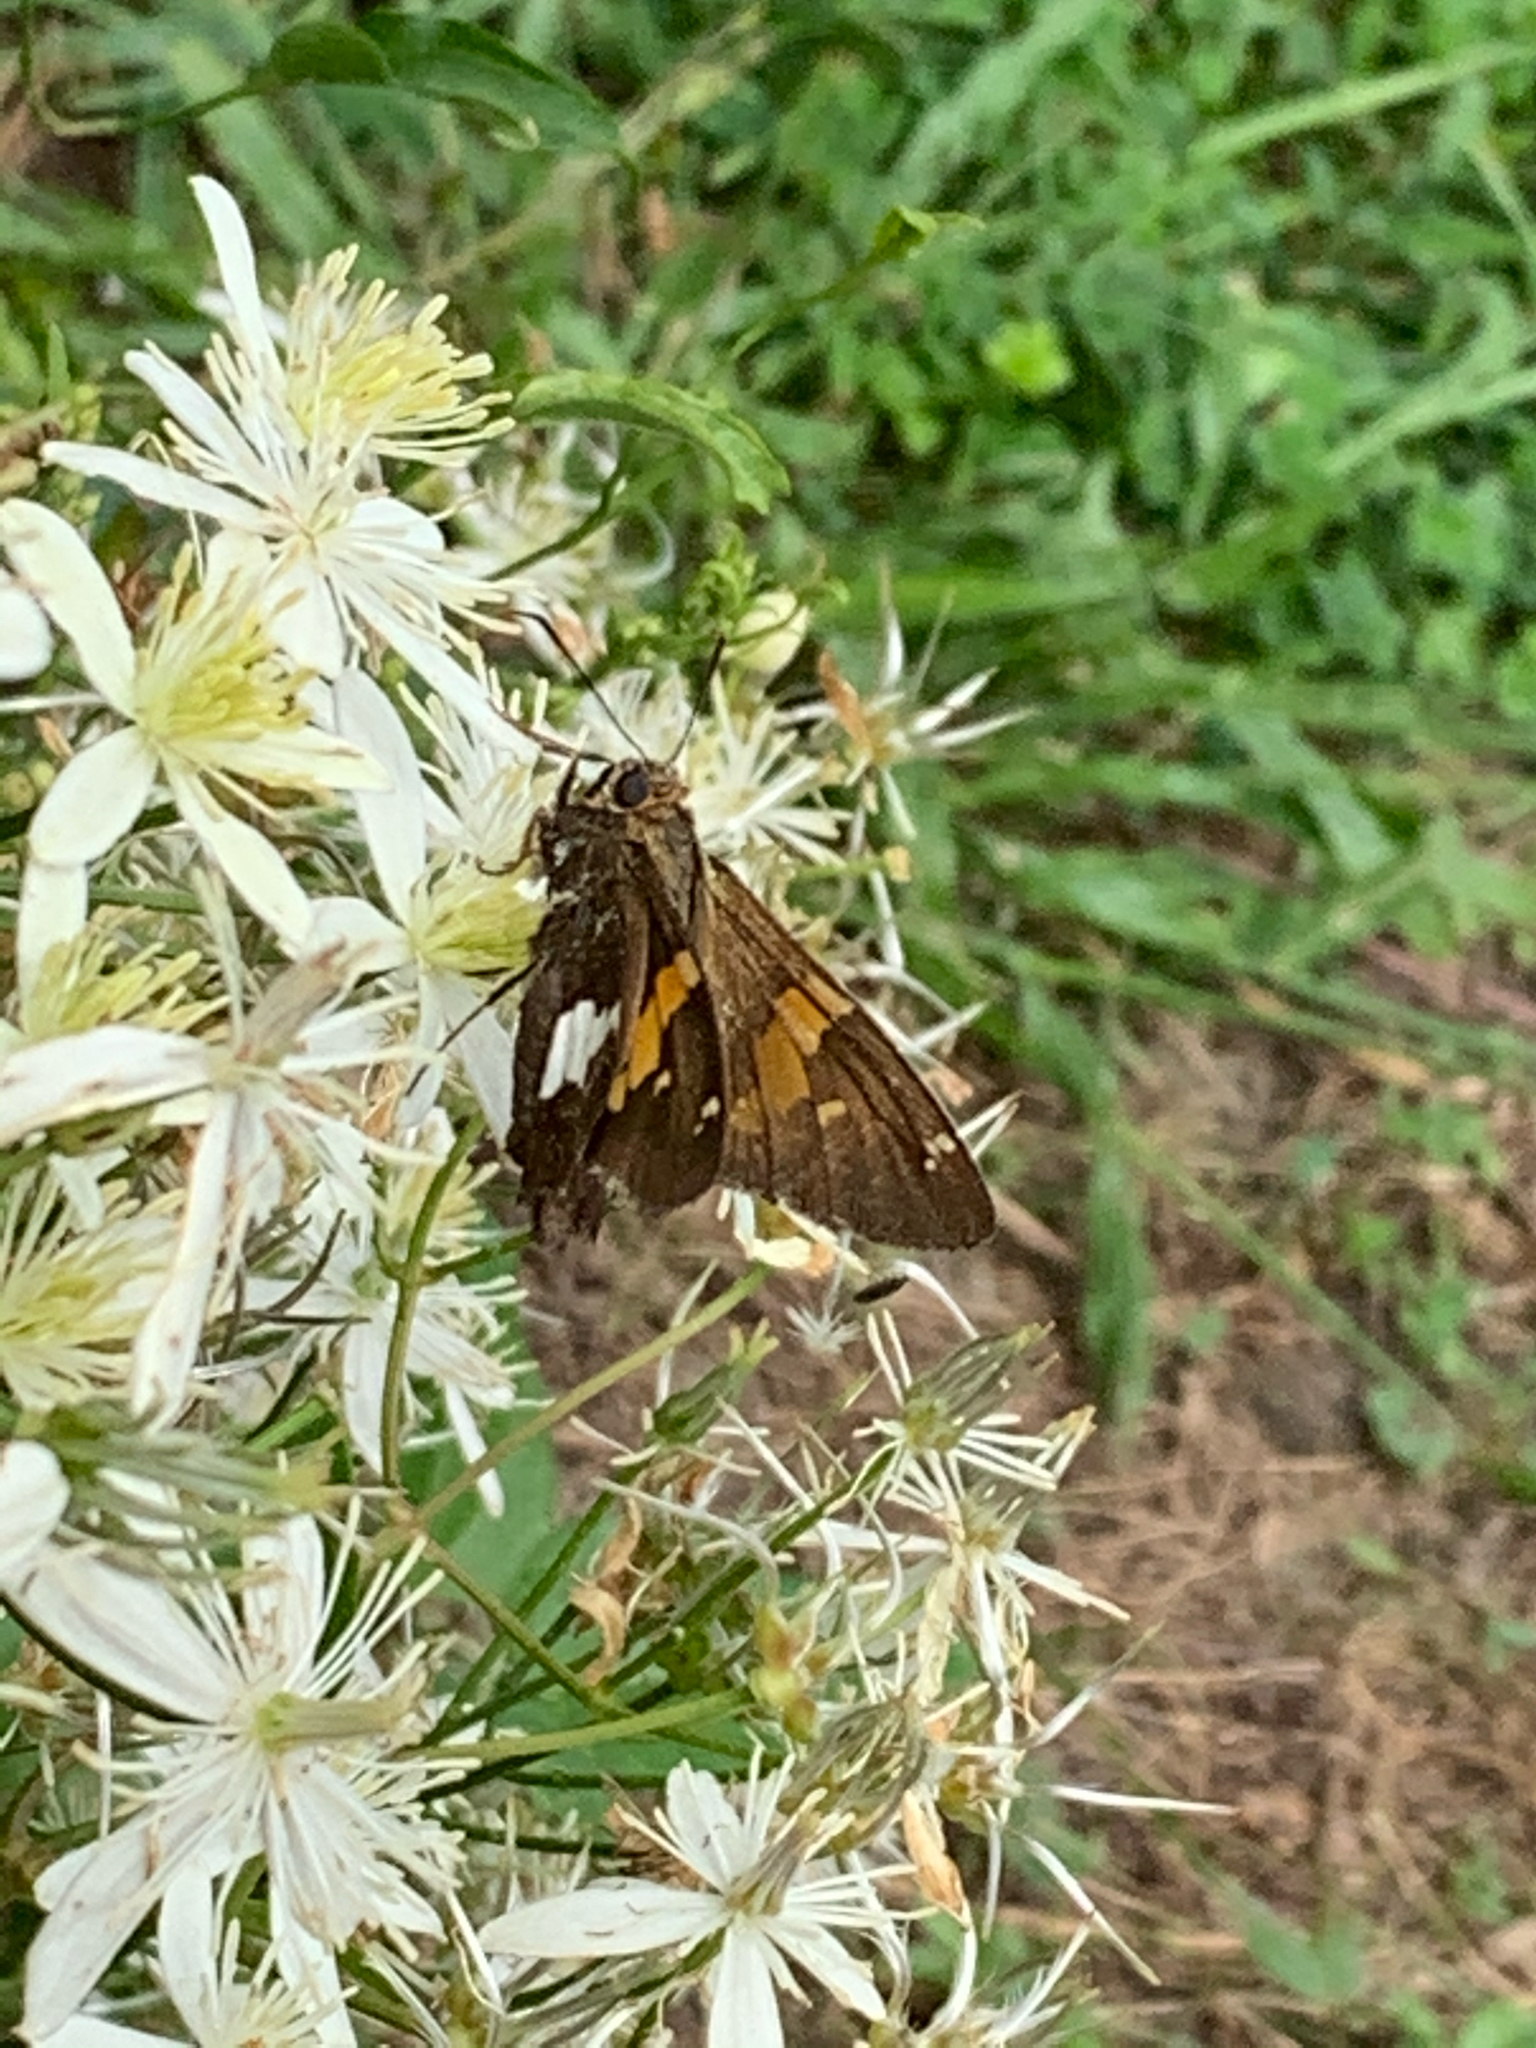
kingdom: Animalia
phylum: Arthropoda
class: Insecta
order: Lepidoptera
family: Hesperiidae
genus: Epargyreus
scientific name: Epargyreus clarus
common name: Silver-spotted skipper
